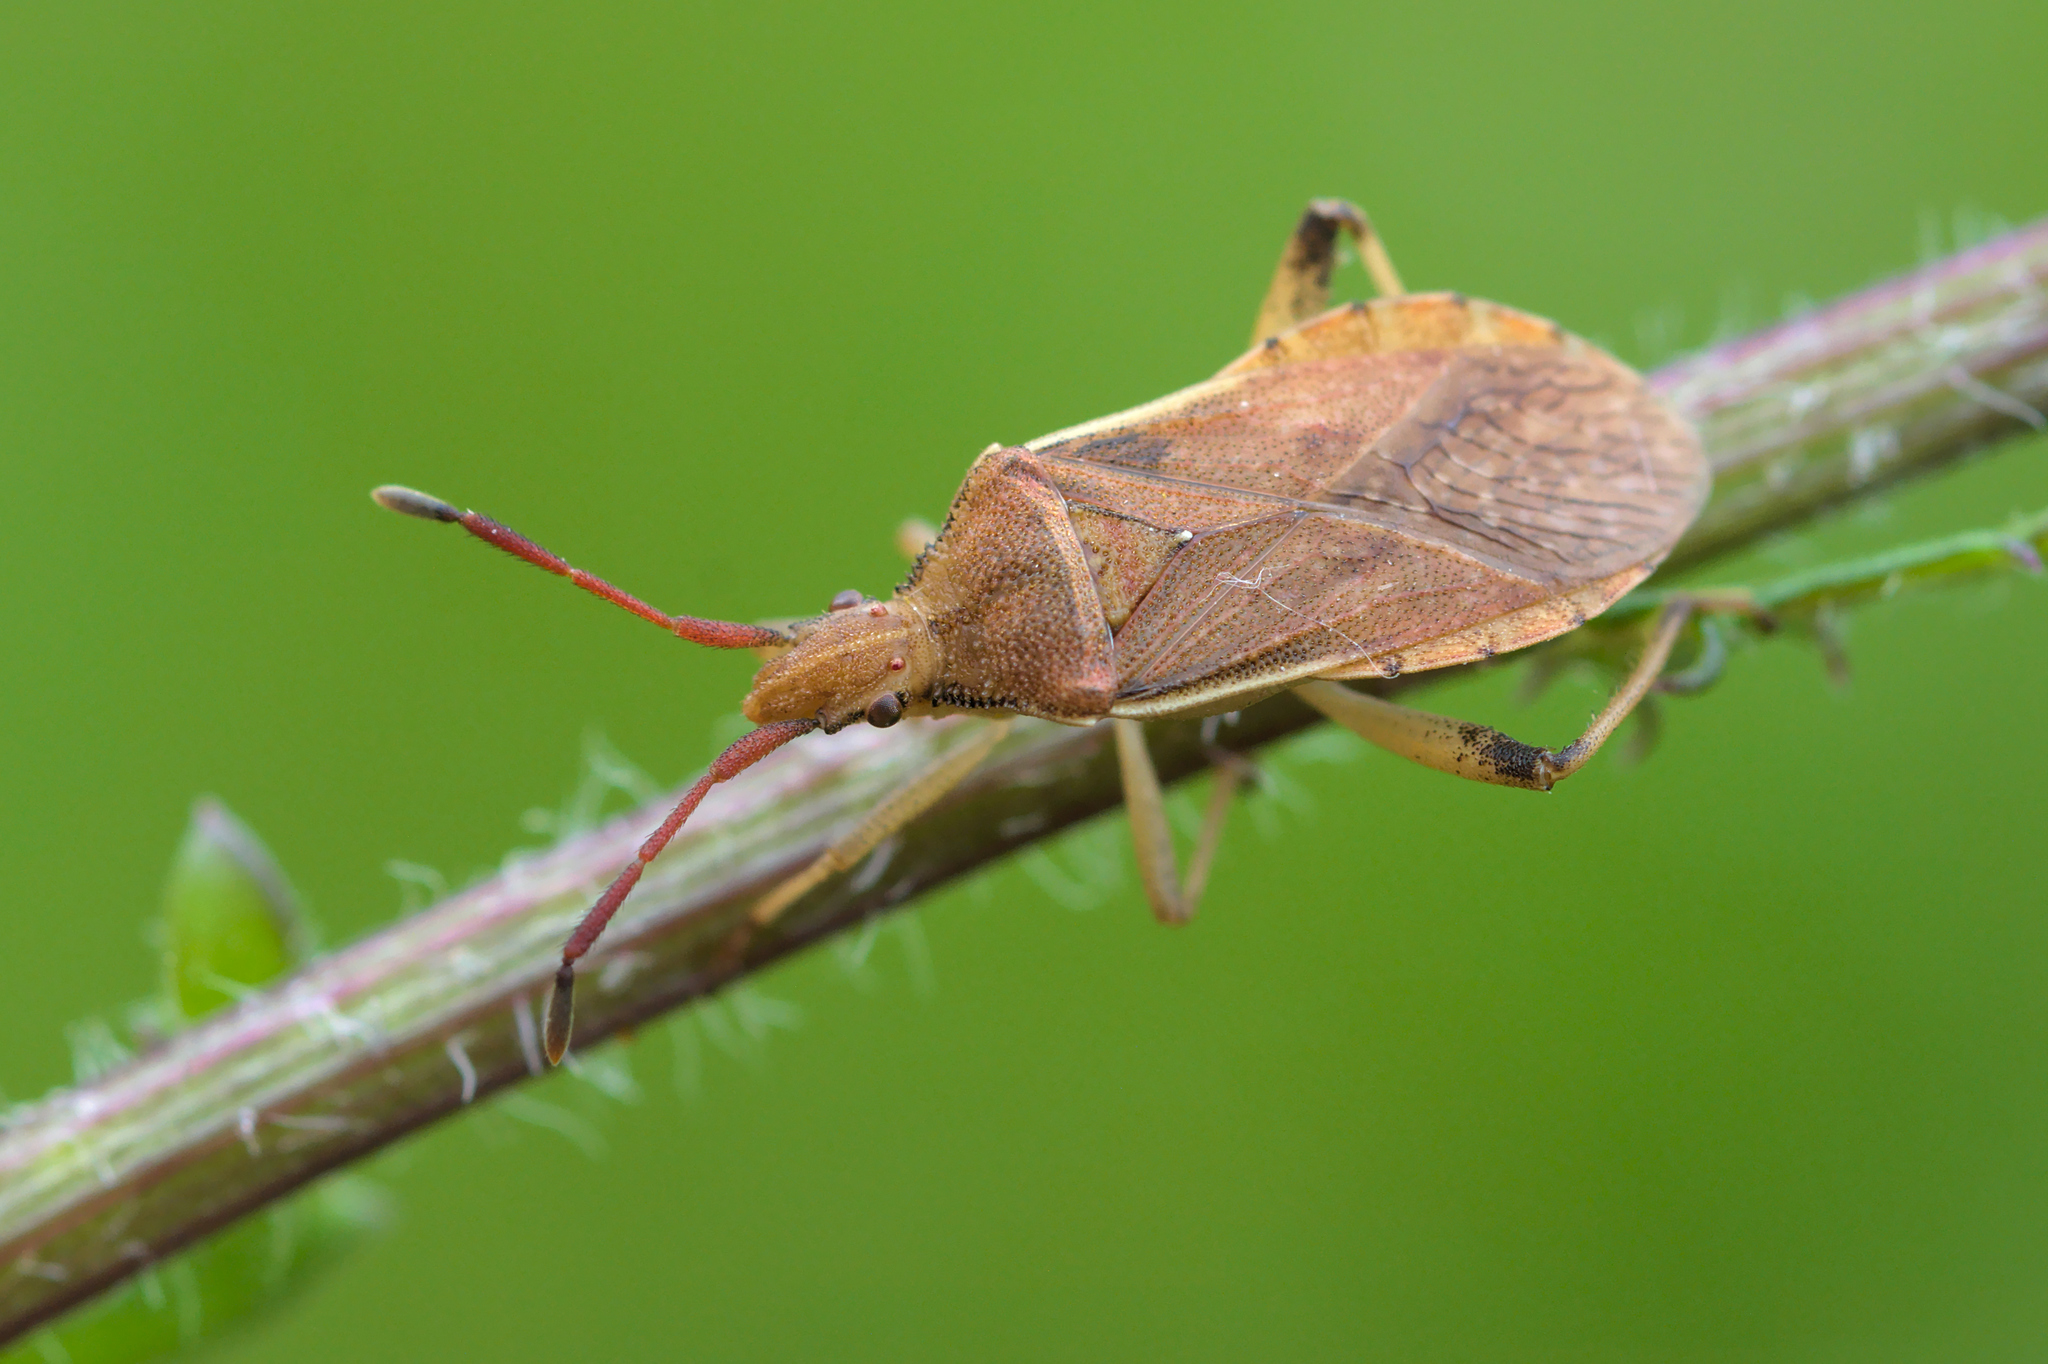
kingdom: Animalia
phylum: Arthropoda
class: Insecta
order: Hemiptera
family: Coreidae
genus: Ceraleptus
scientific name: Ceraleptus lividus
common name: Slender-horned leatherbug
